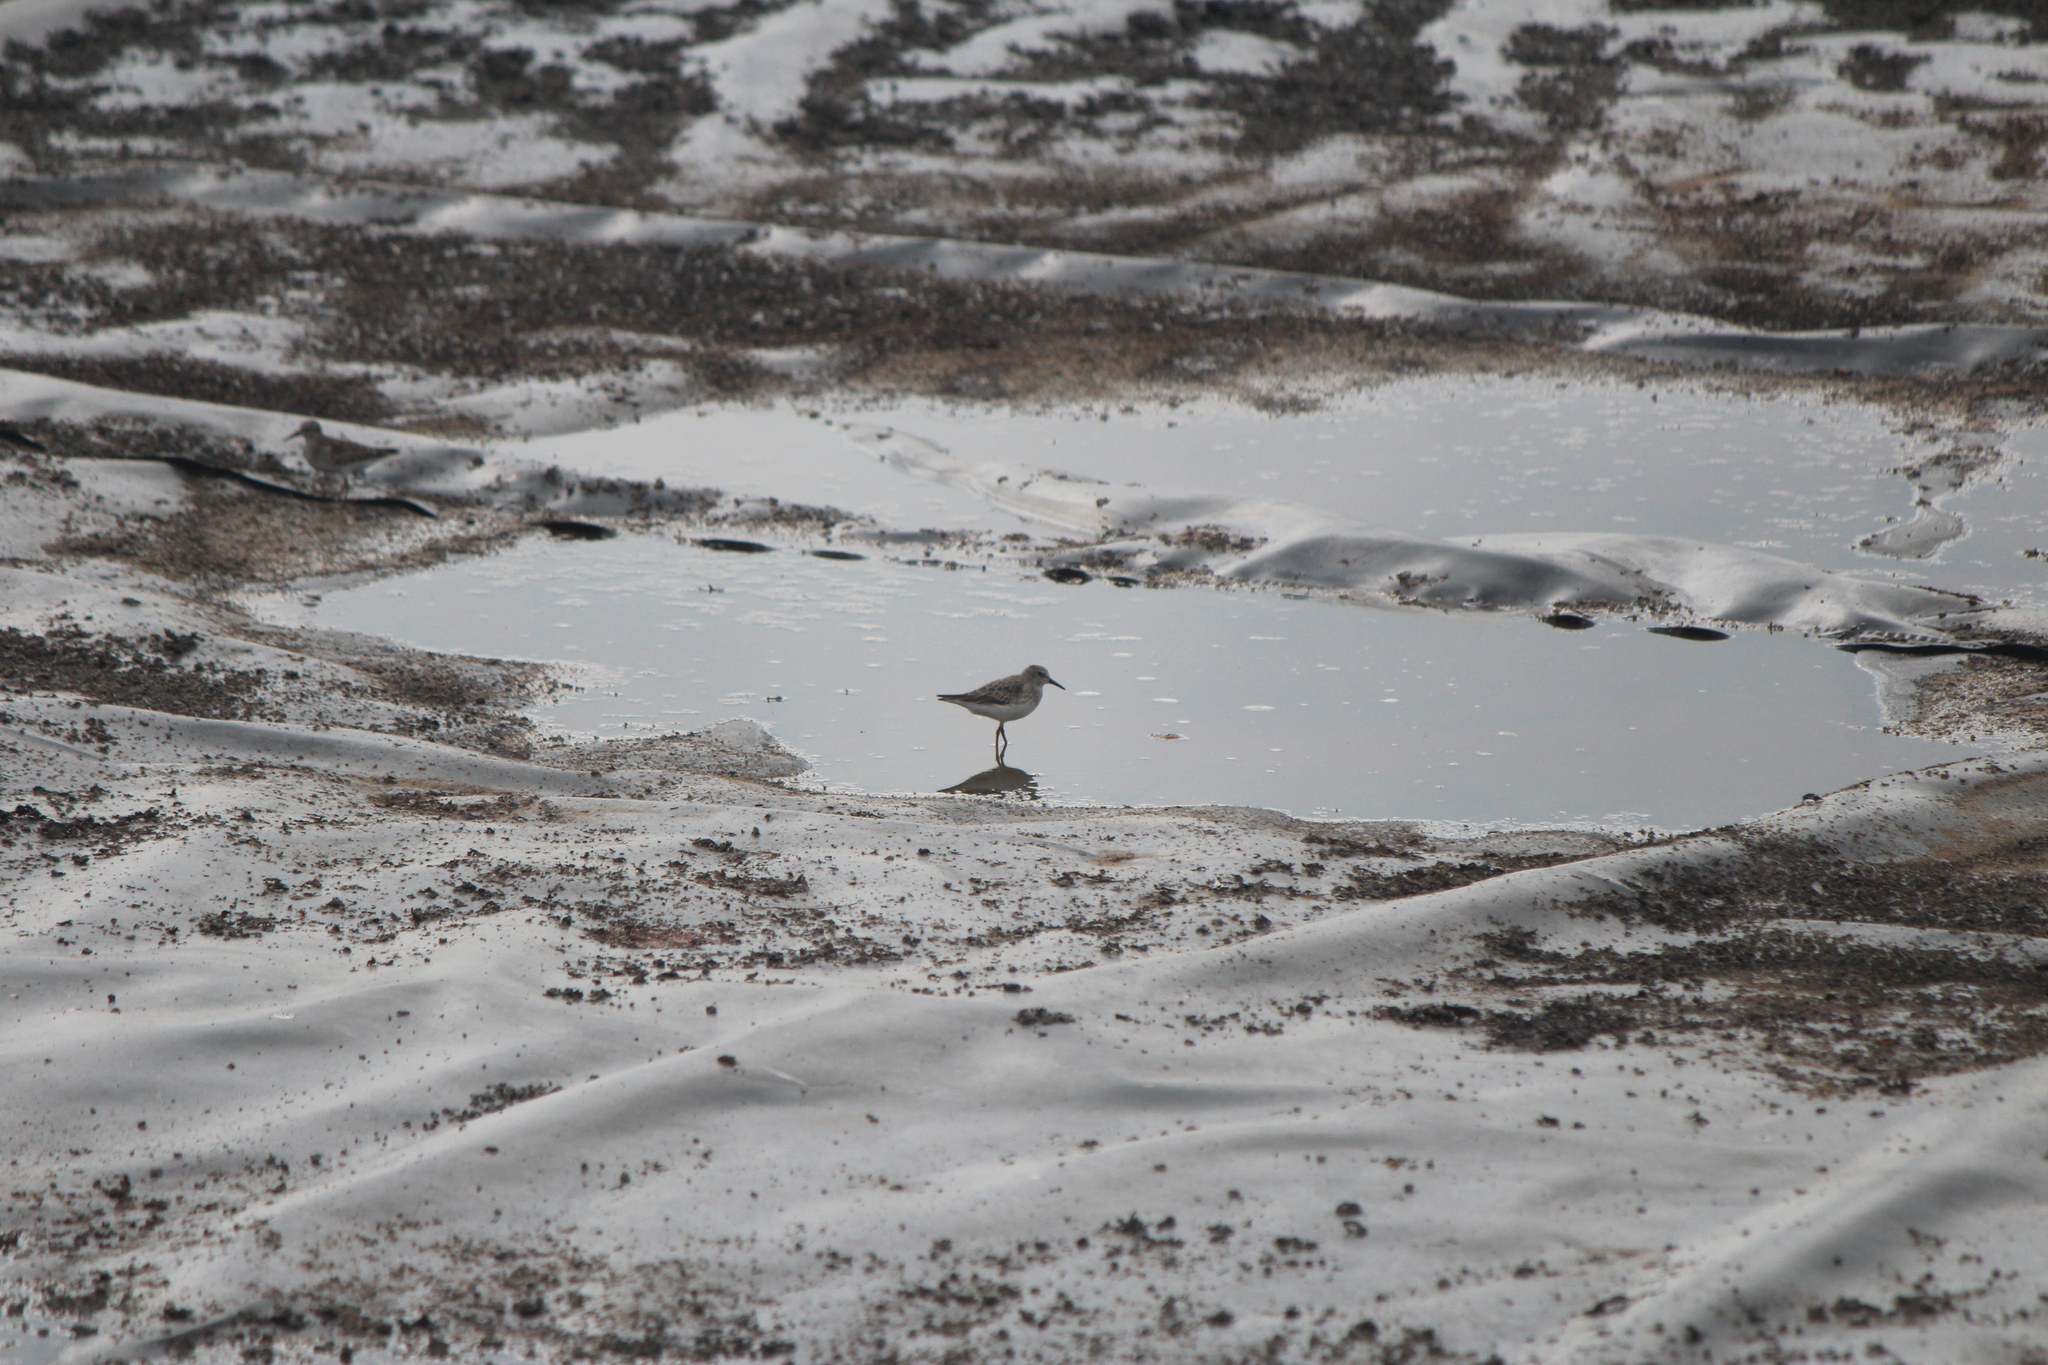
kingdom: Animalia
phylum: Chordata
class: Aves
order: Charadriiformes
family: Scolopacidae
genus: Calidris
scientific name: Calidris minutilla
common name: Least sandpiper
